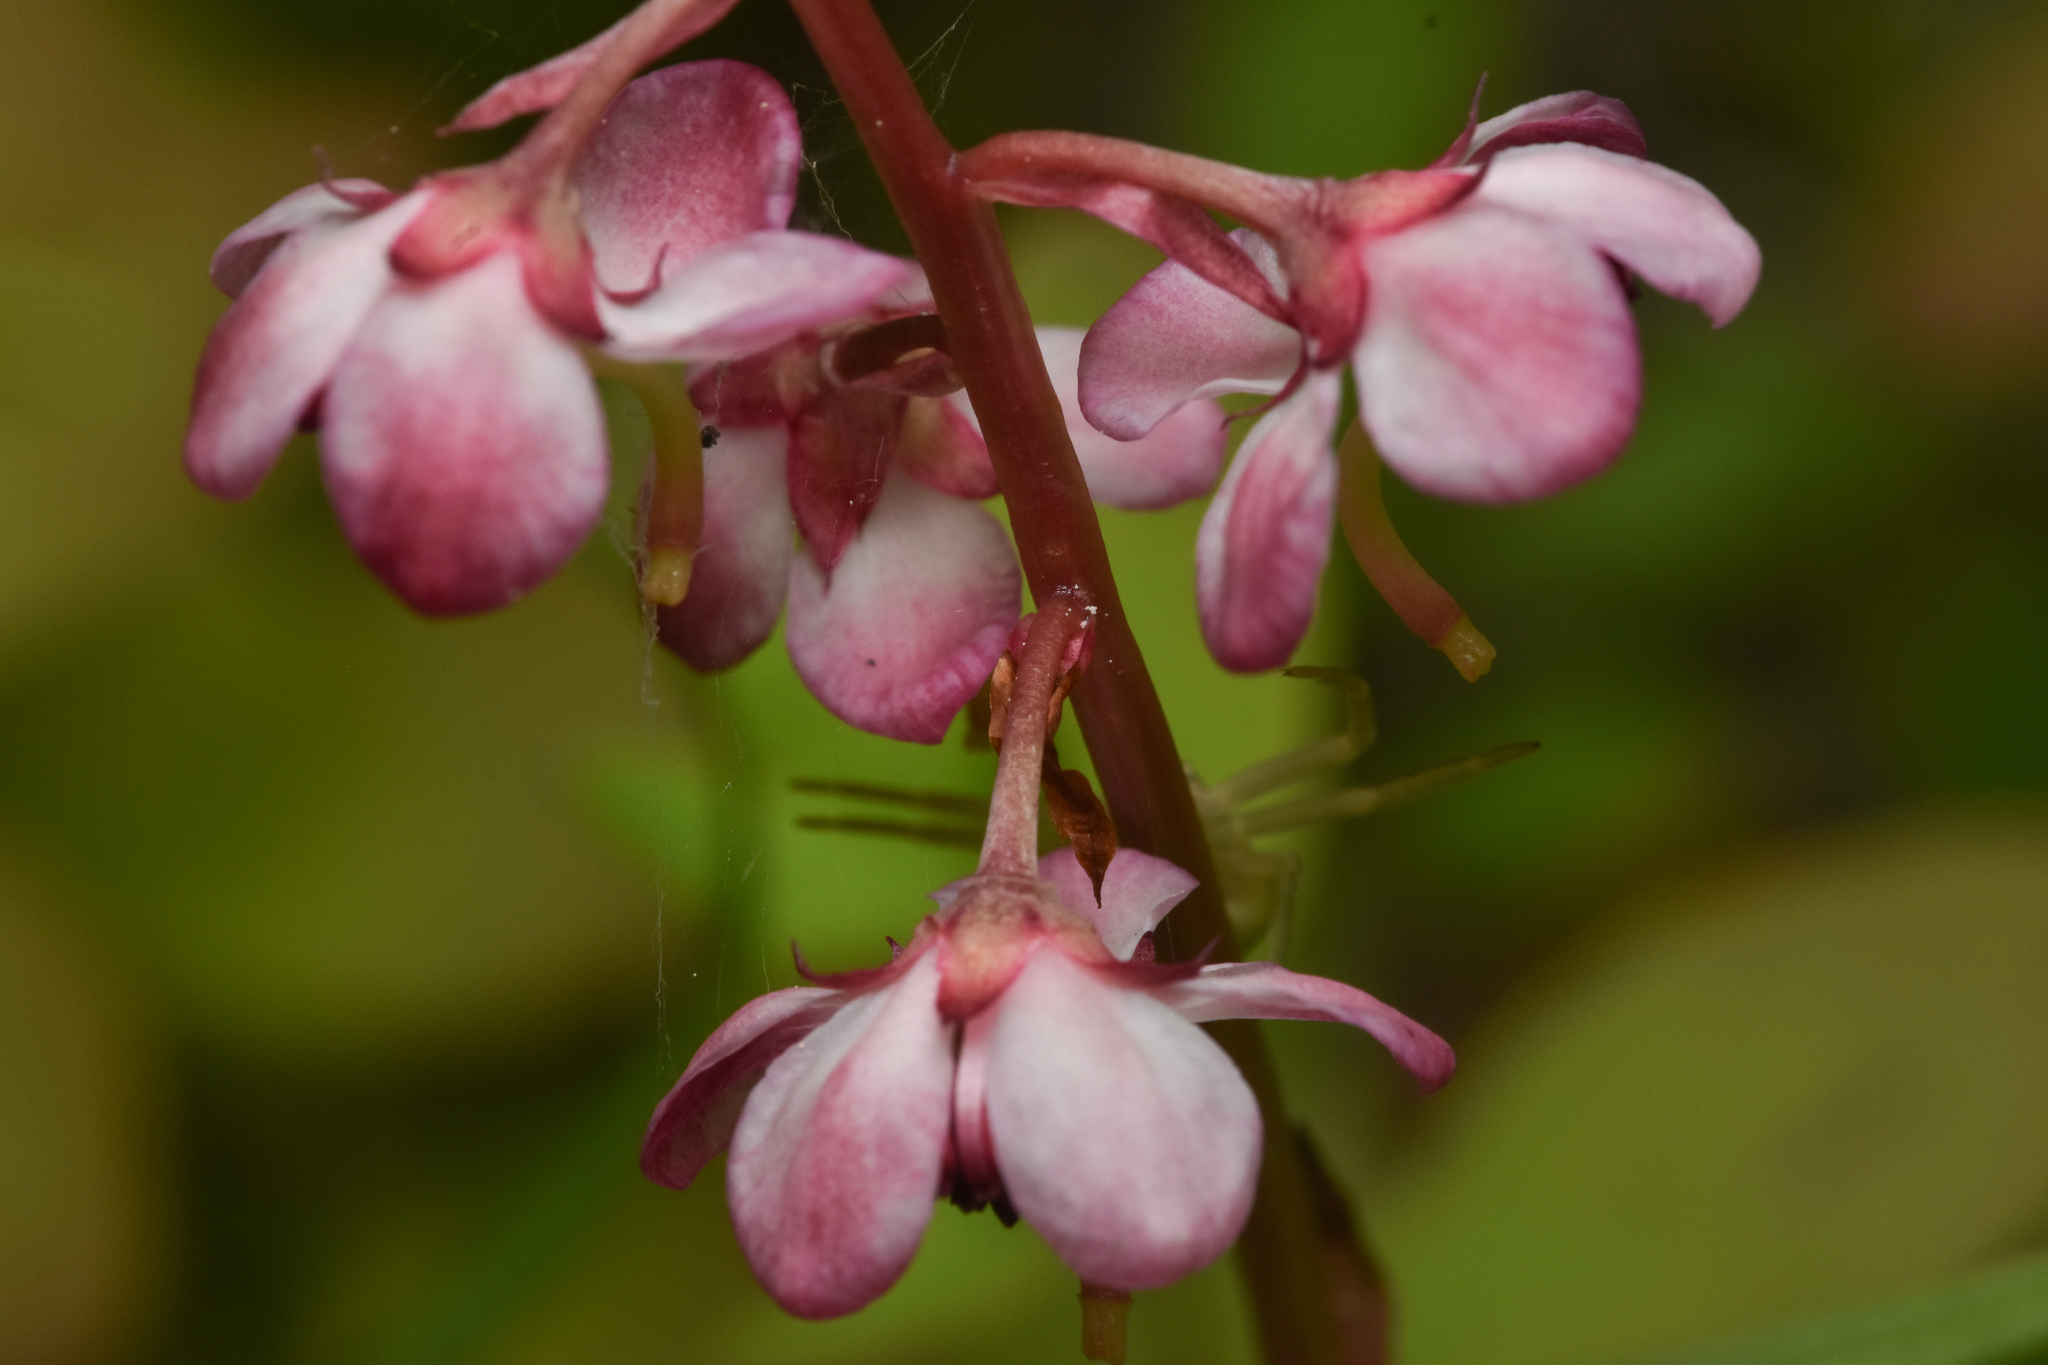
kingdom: Plantae
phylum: Tracheophyta
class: Magnoliopsida
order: Ericales
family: Ericaceae
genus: Pyrola
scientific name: Pyrola asarifolia
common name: Bog wintergreen
